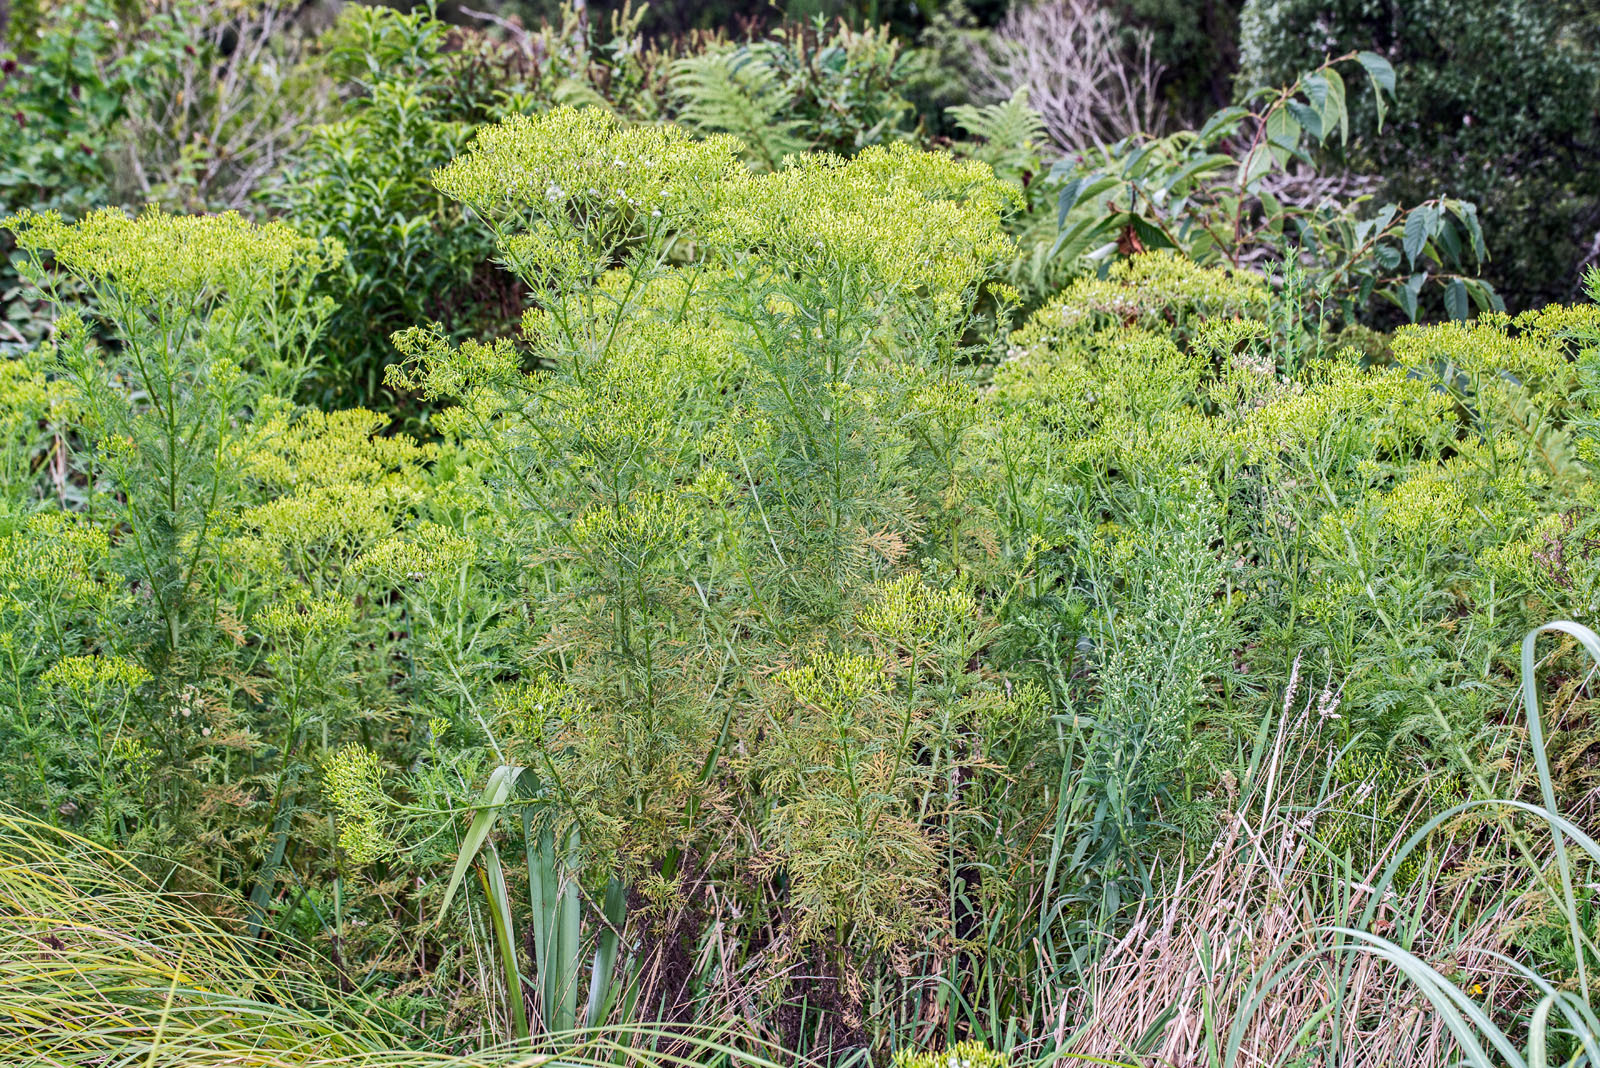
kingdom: Plantae
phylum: Tracheophyta
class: Magnoliopsida
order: Asterales
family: Asteraceae
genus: Senecio
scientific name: Senecio bipinnatisectus
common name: Australian fireweed
